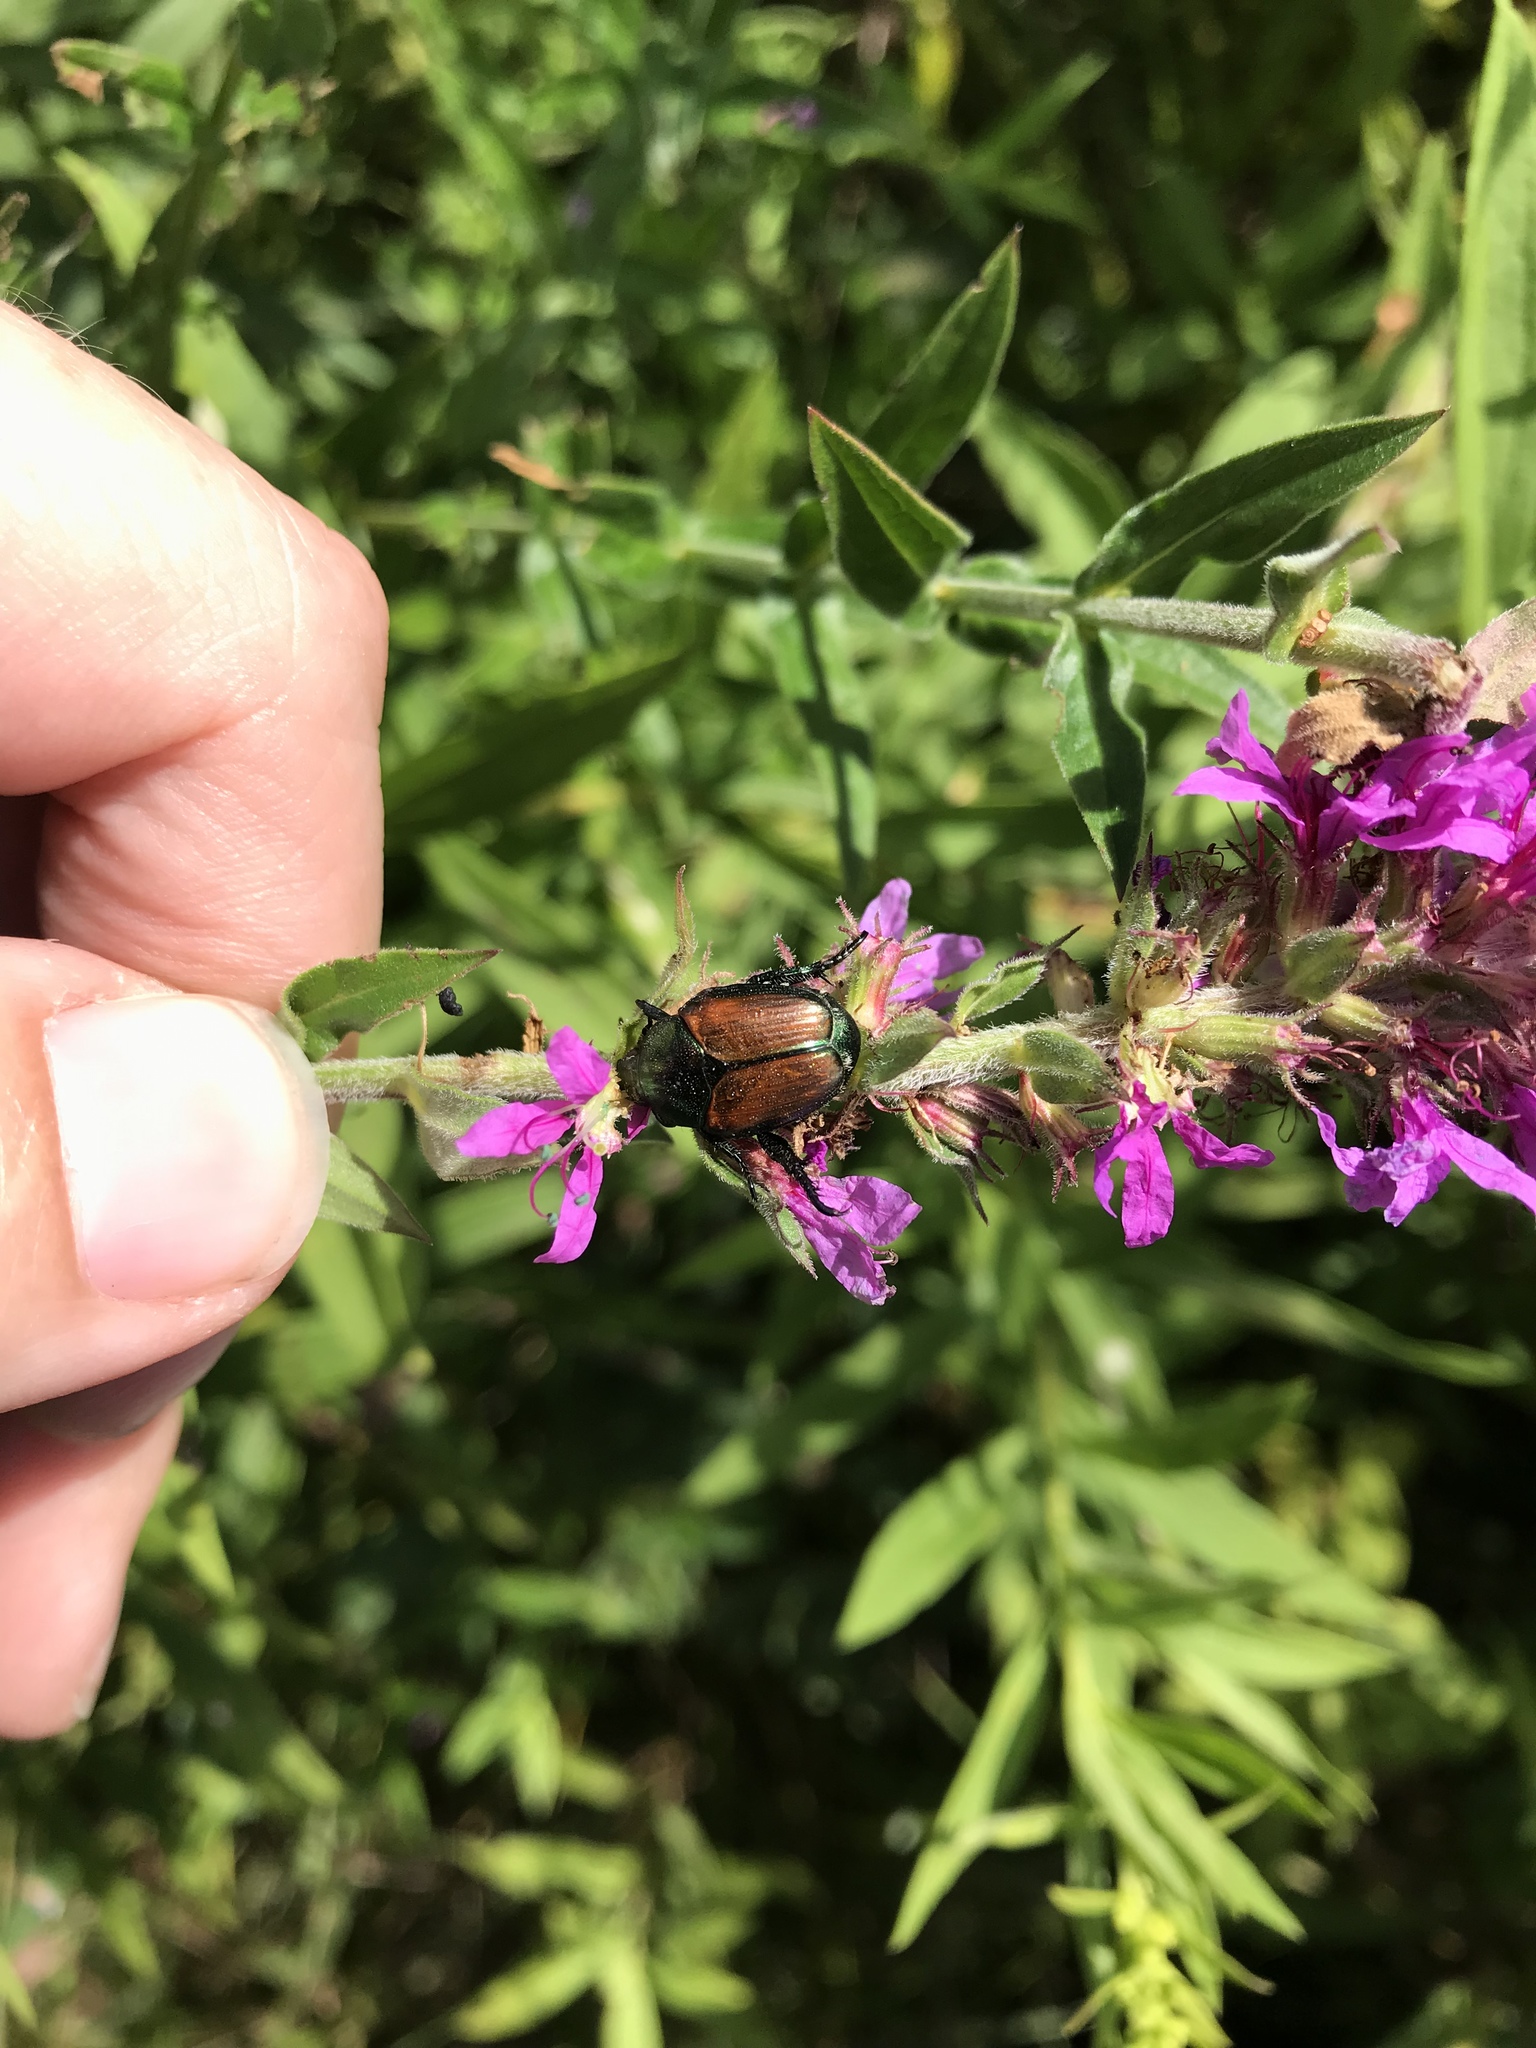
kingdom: Animalia
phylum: Arthropoda
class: Insecta
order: Coleoptera
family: Scarabaeidae
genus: Popillia
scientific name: Popillia japonica
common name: Japanese beetle
